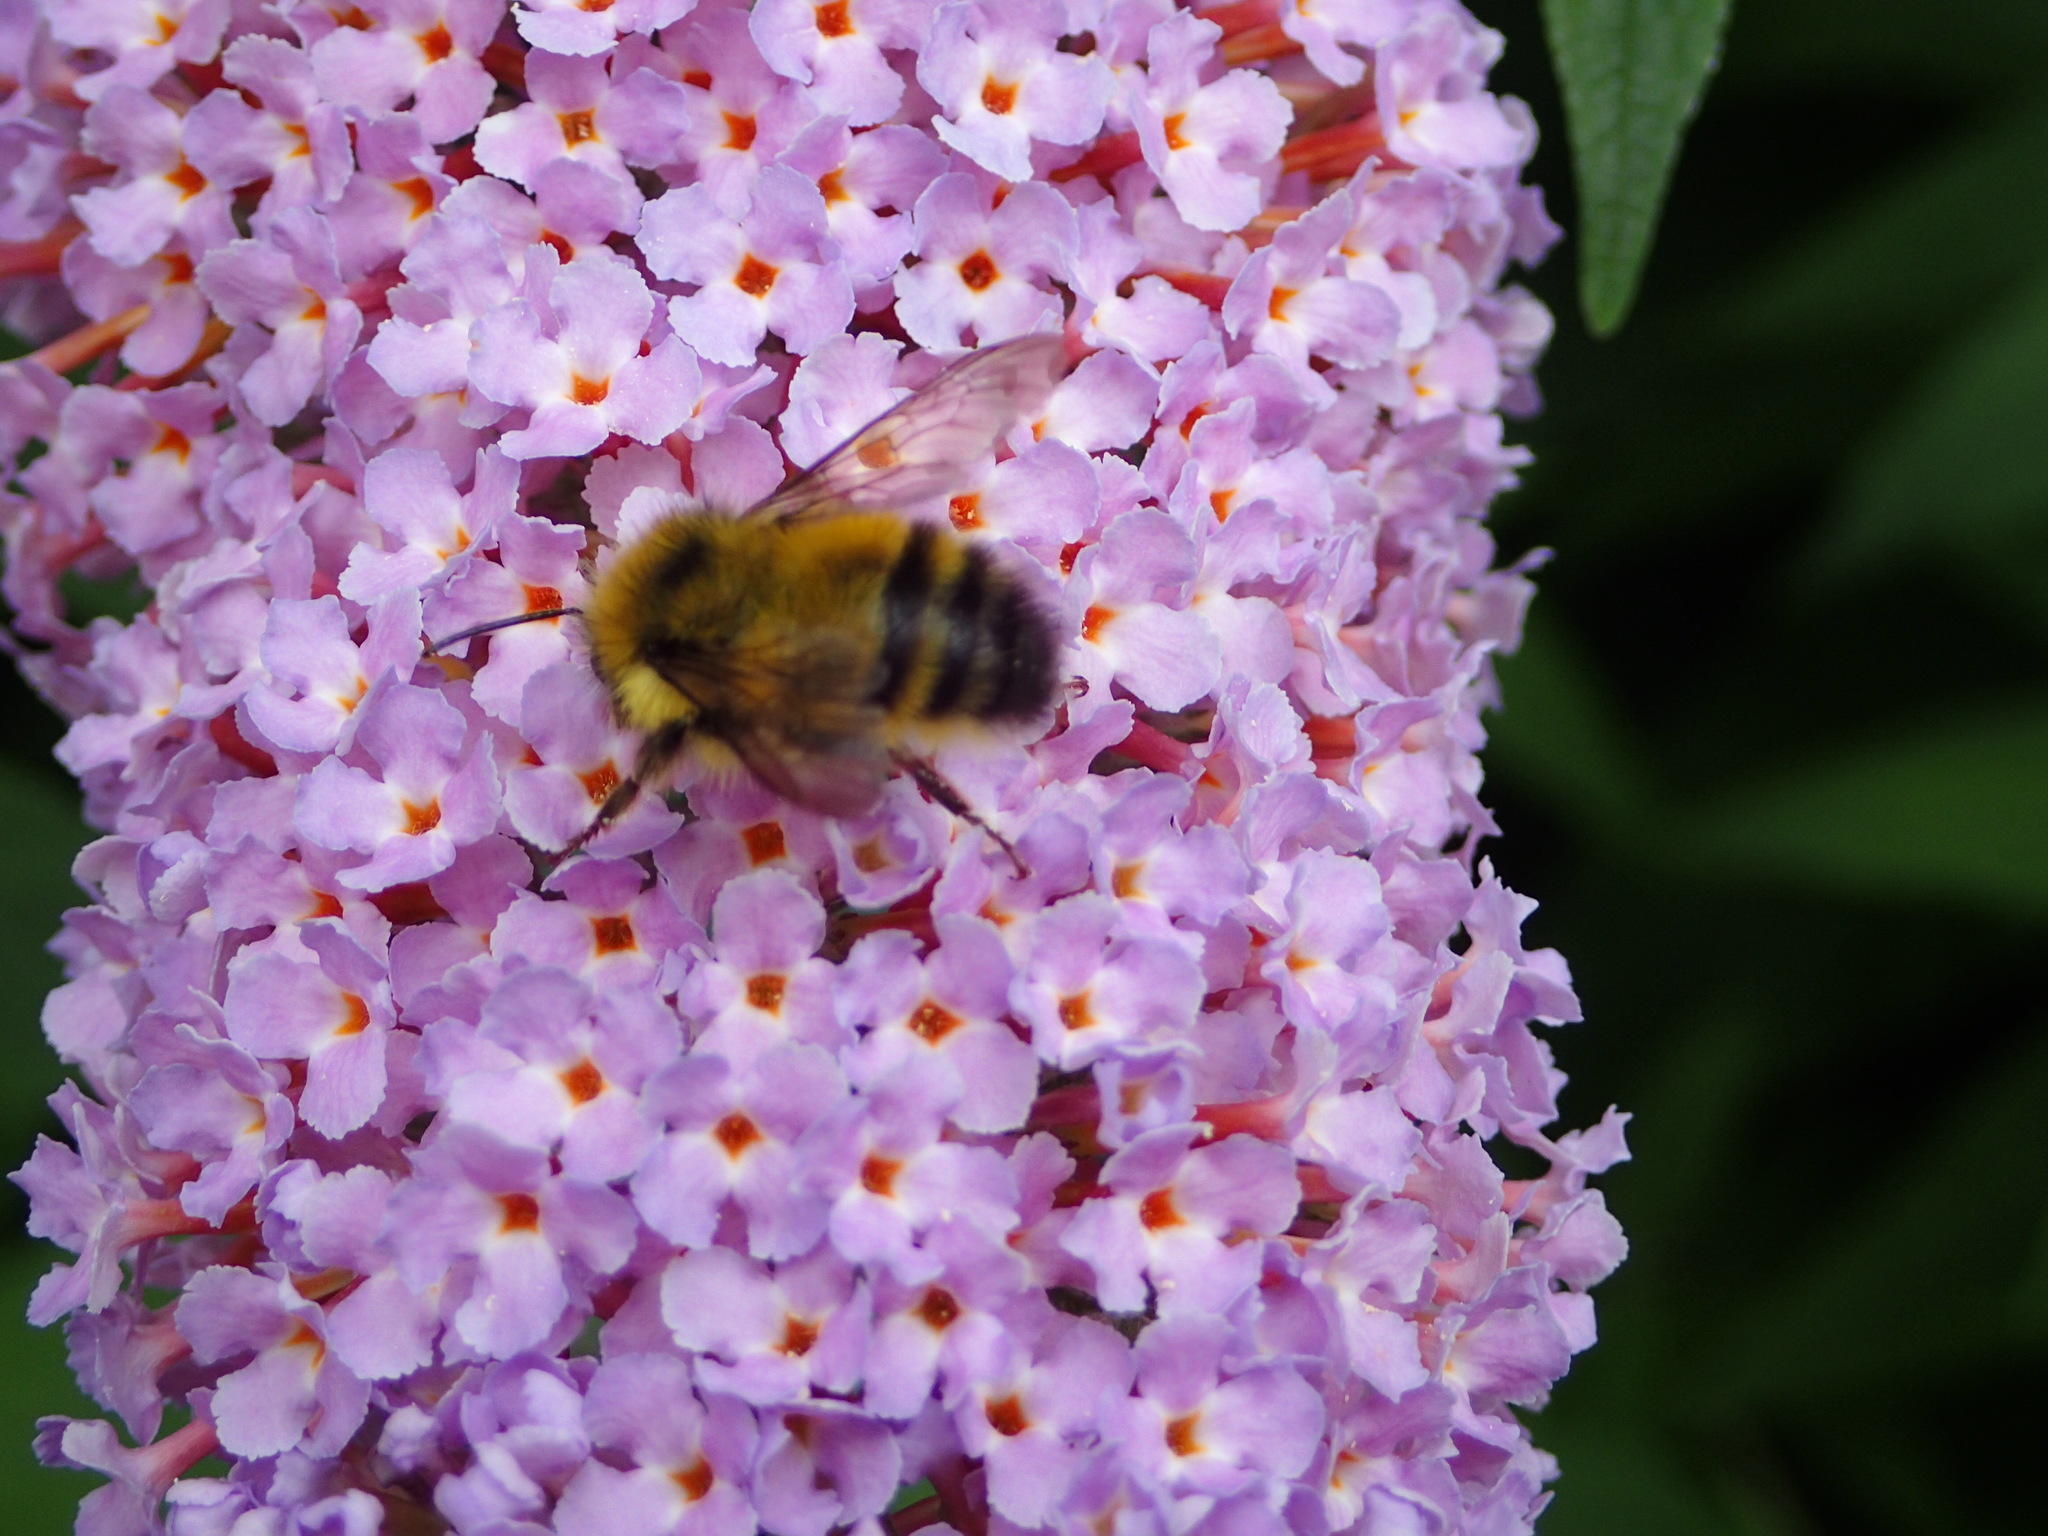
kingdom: Animalia
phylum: Arthropoda
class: Insecta
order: Hymenoptera
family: Apidae
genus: Bombus
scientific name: Bombus flavifrons
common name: Yellow head bumble bee
